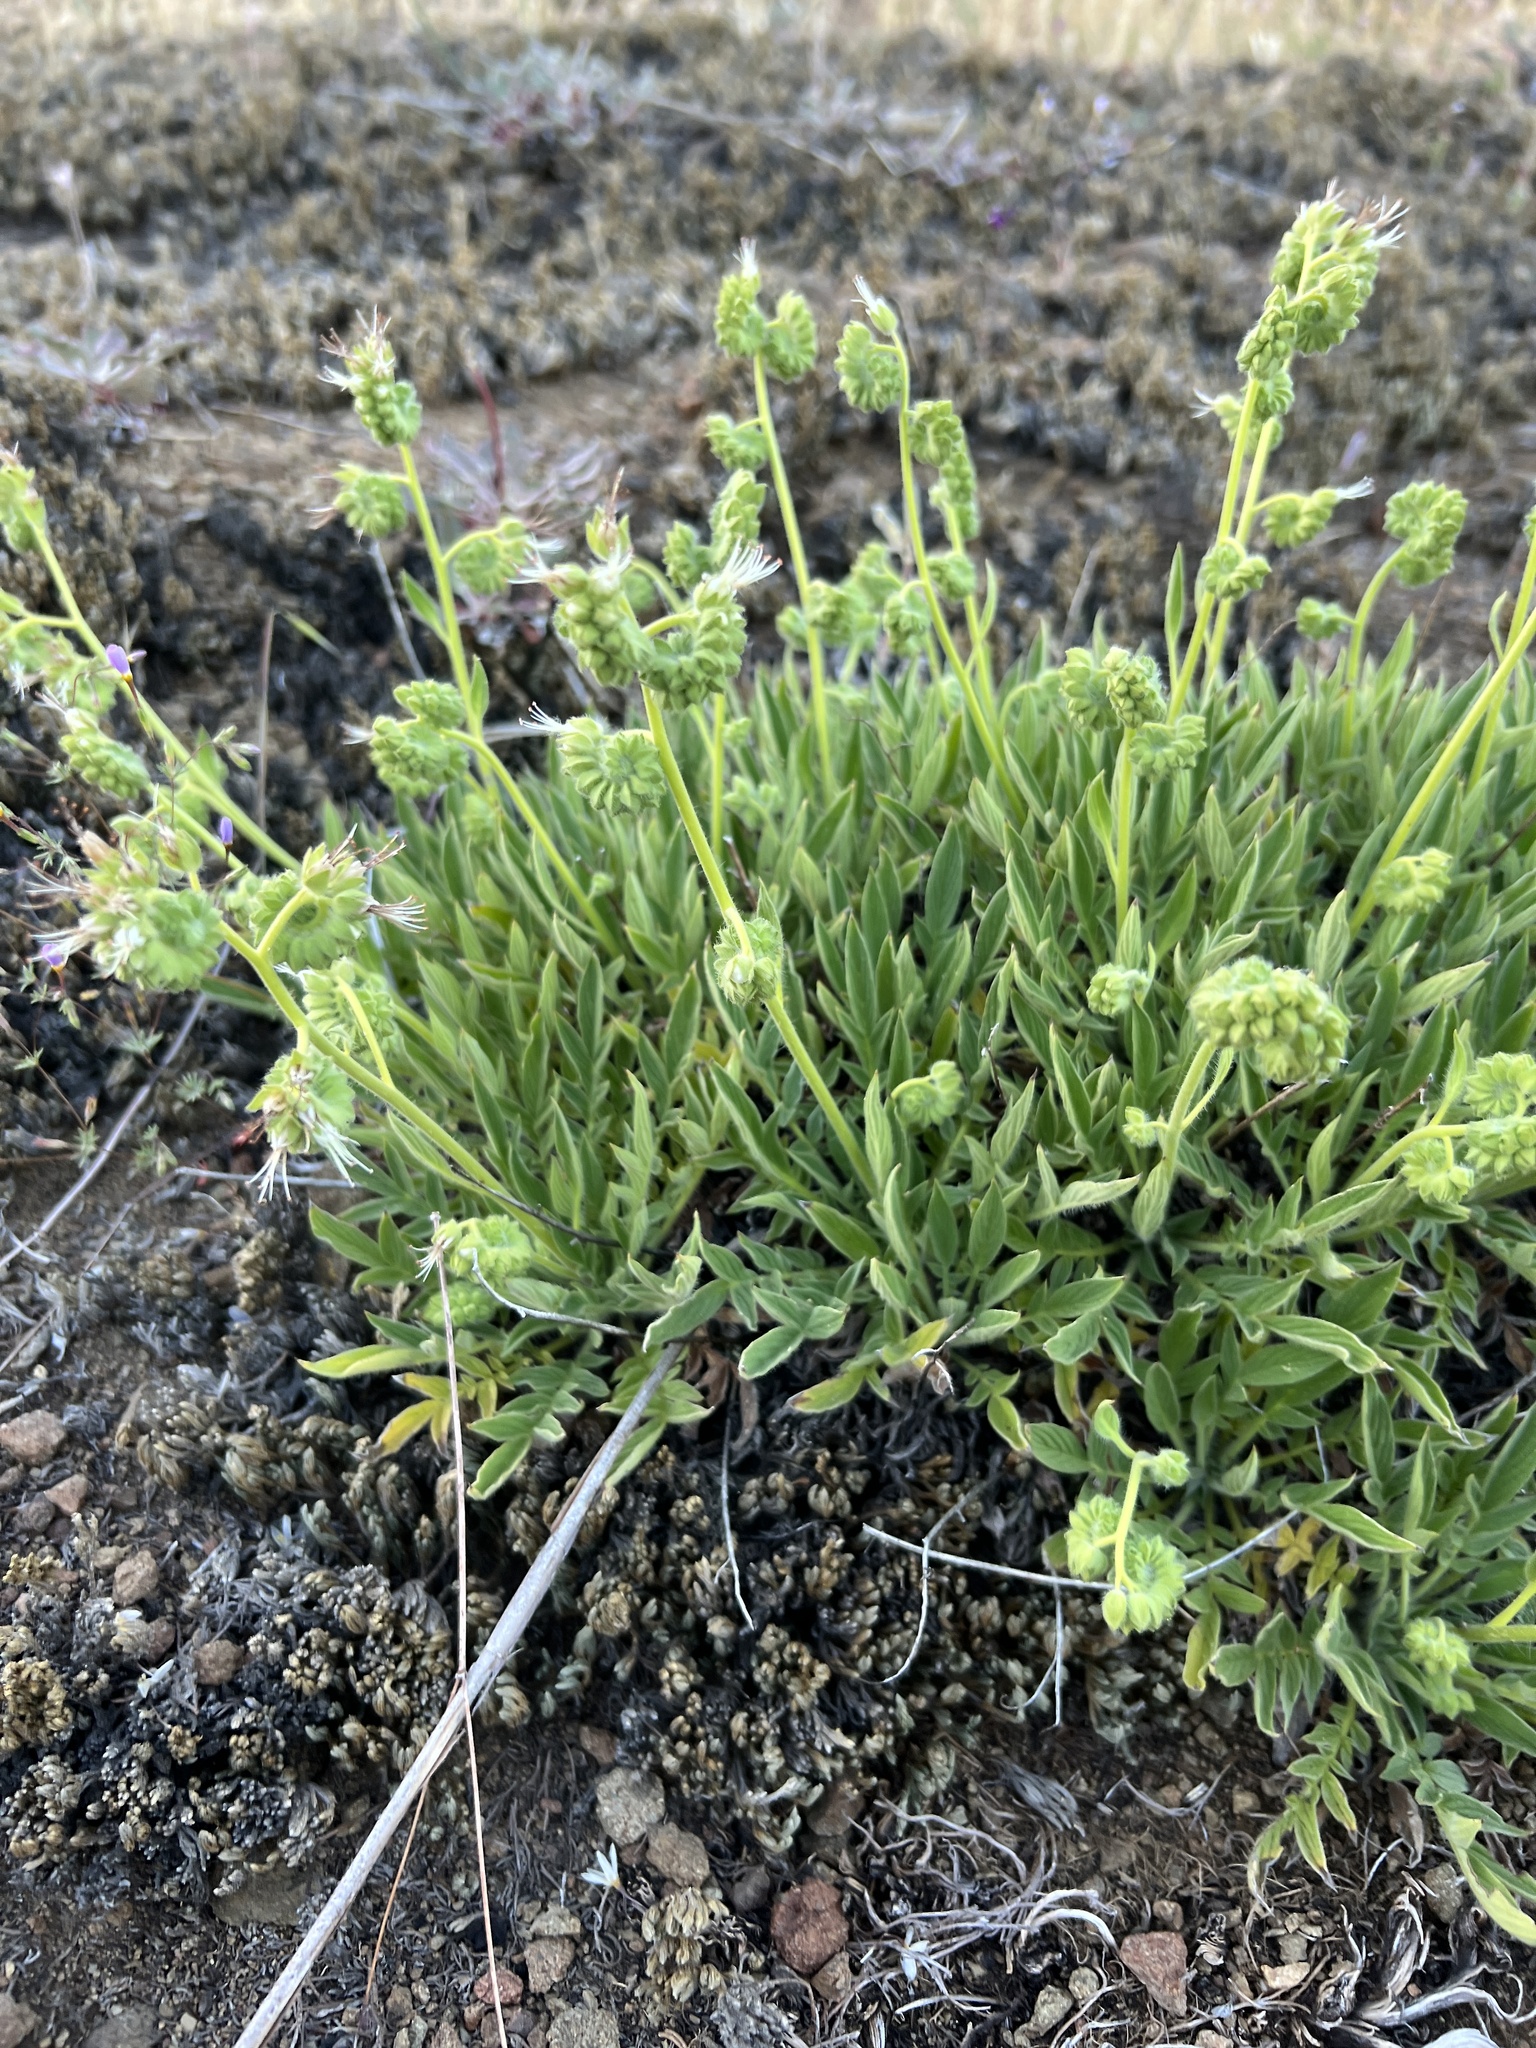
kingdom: Plantae
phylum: Tracheophyta
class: Magnoliopsida
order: Boraginales
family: Hydrophyllaceae
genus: Phacelia
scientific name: Phacelia imbricata
